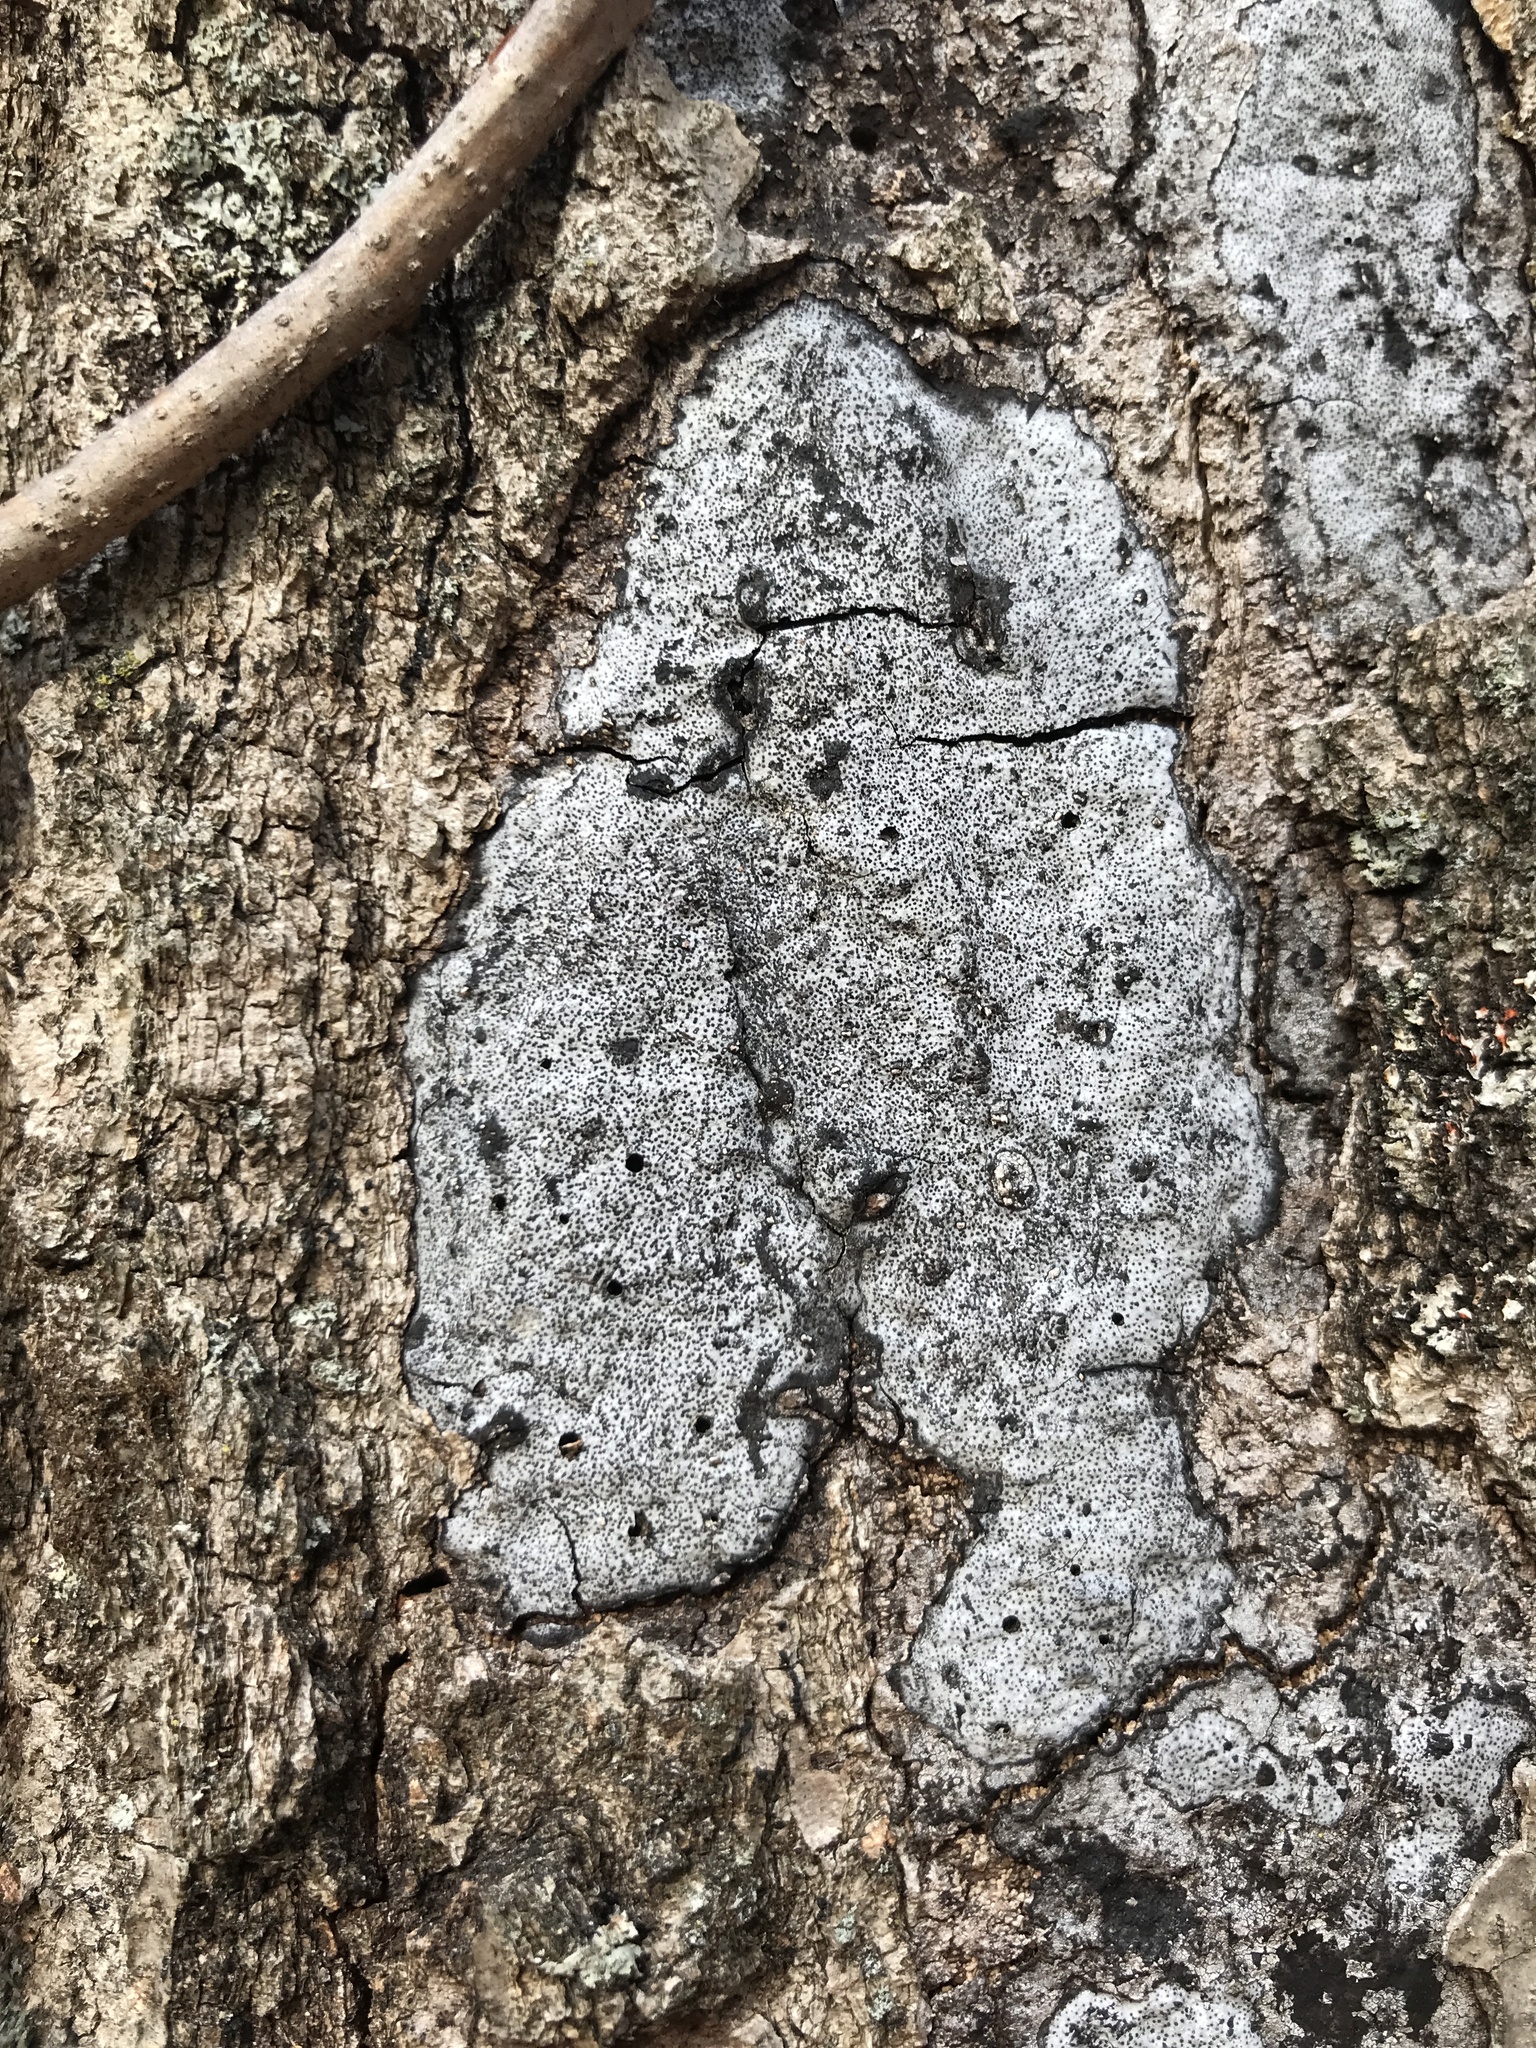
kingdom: Fungi
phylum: Ascomycota
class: Sordariomycetes
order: Xylariales
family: Graphostromataceae
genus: Biscogniauxia
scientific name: Biscogniauxia atropunctata
